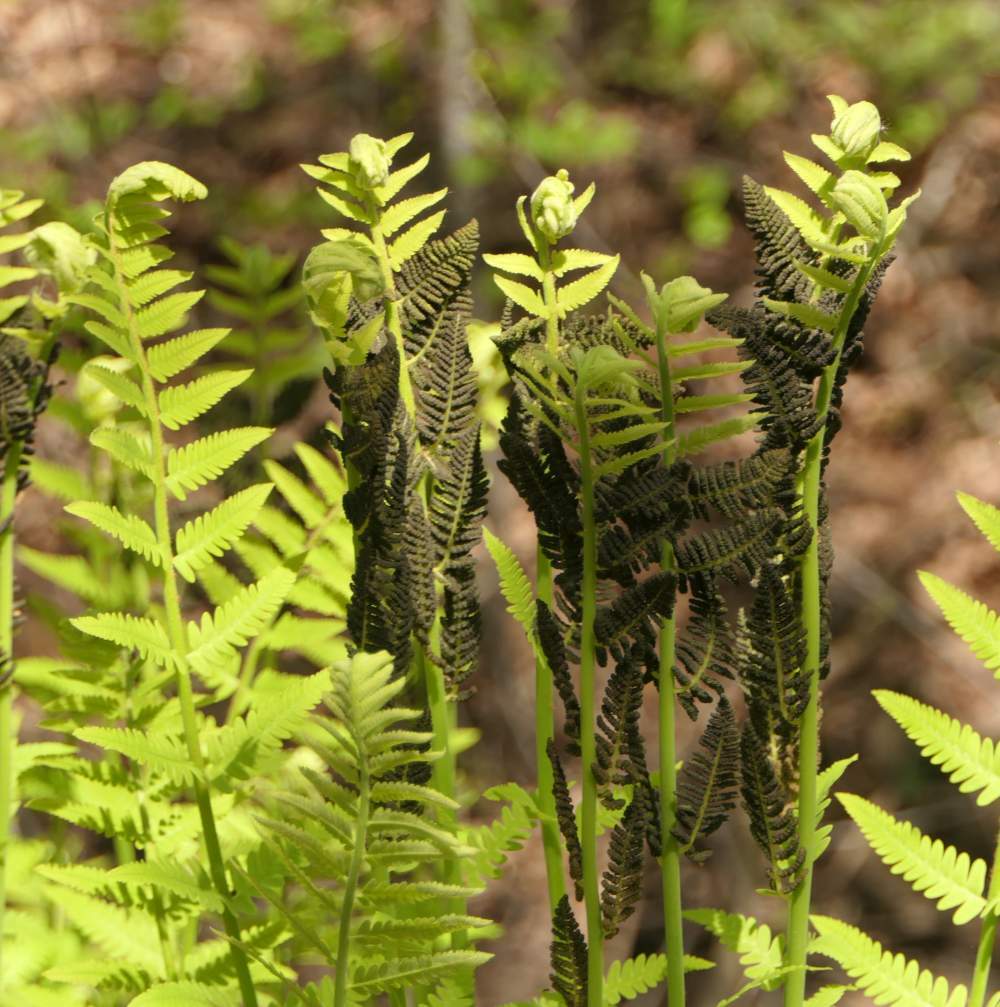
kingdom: Plantae
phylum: Tracheophyta
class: Polypodiopsida
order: Osmundales
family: Osmundaceae
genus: Claytosmunda
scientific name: Claytosmunda claytoniana
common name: Clayton's fern
